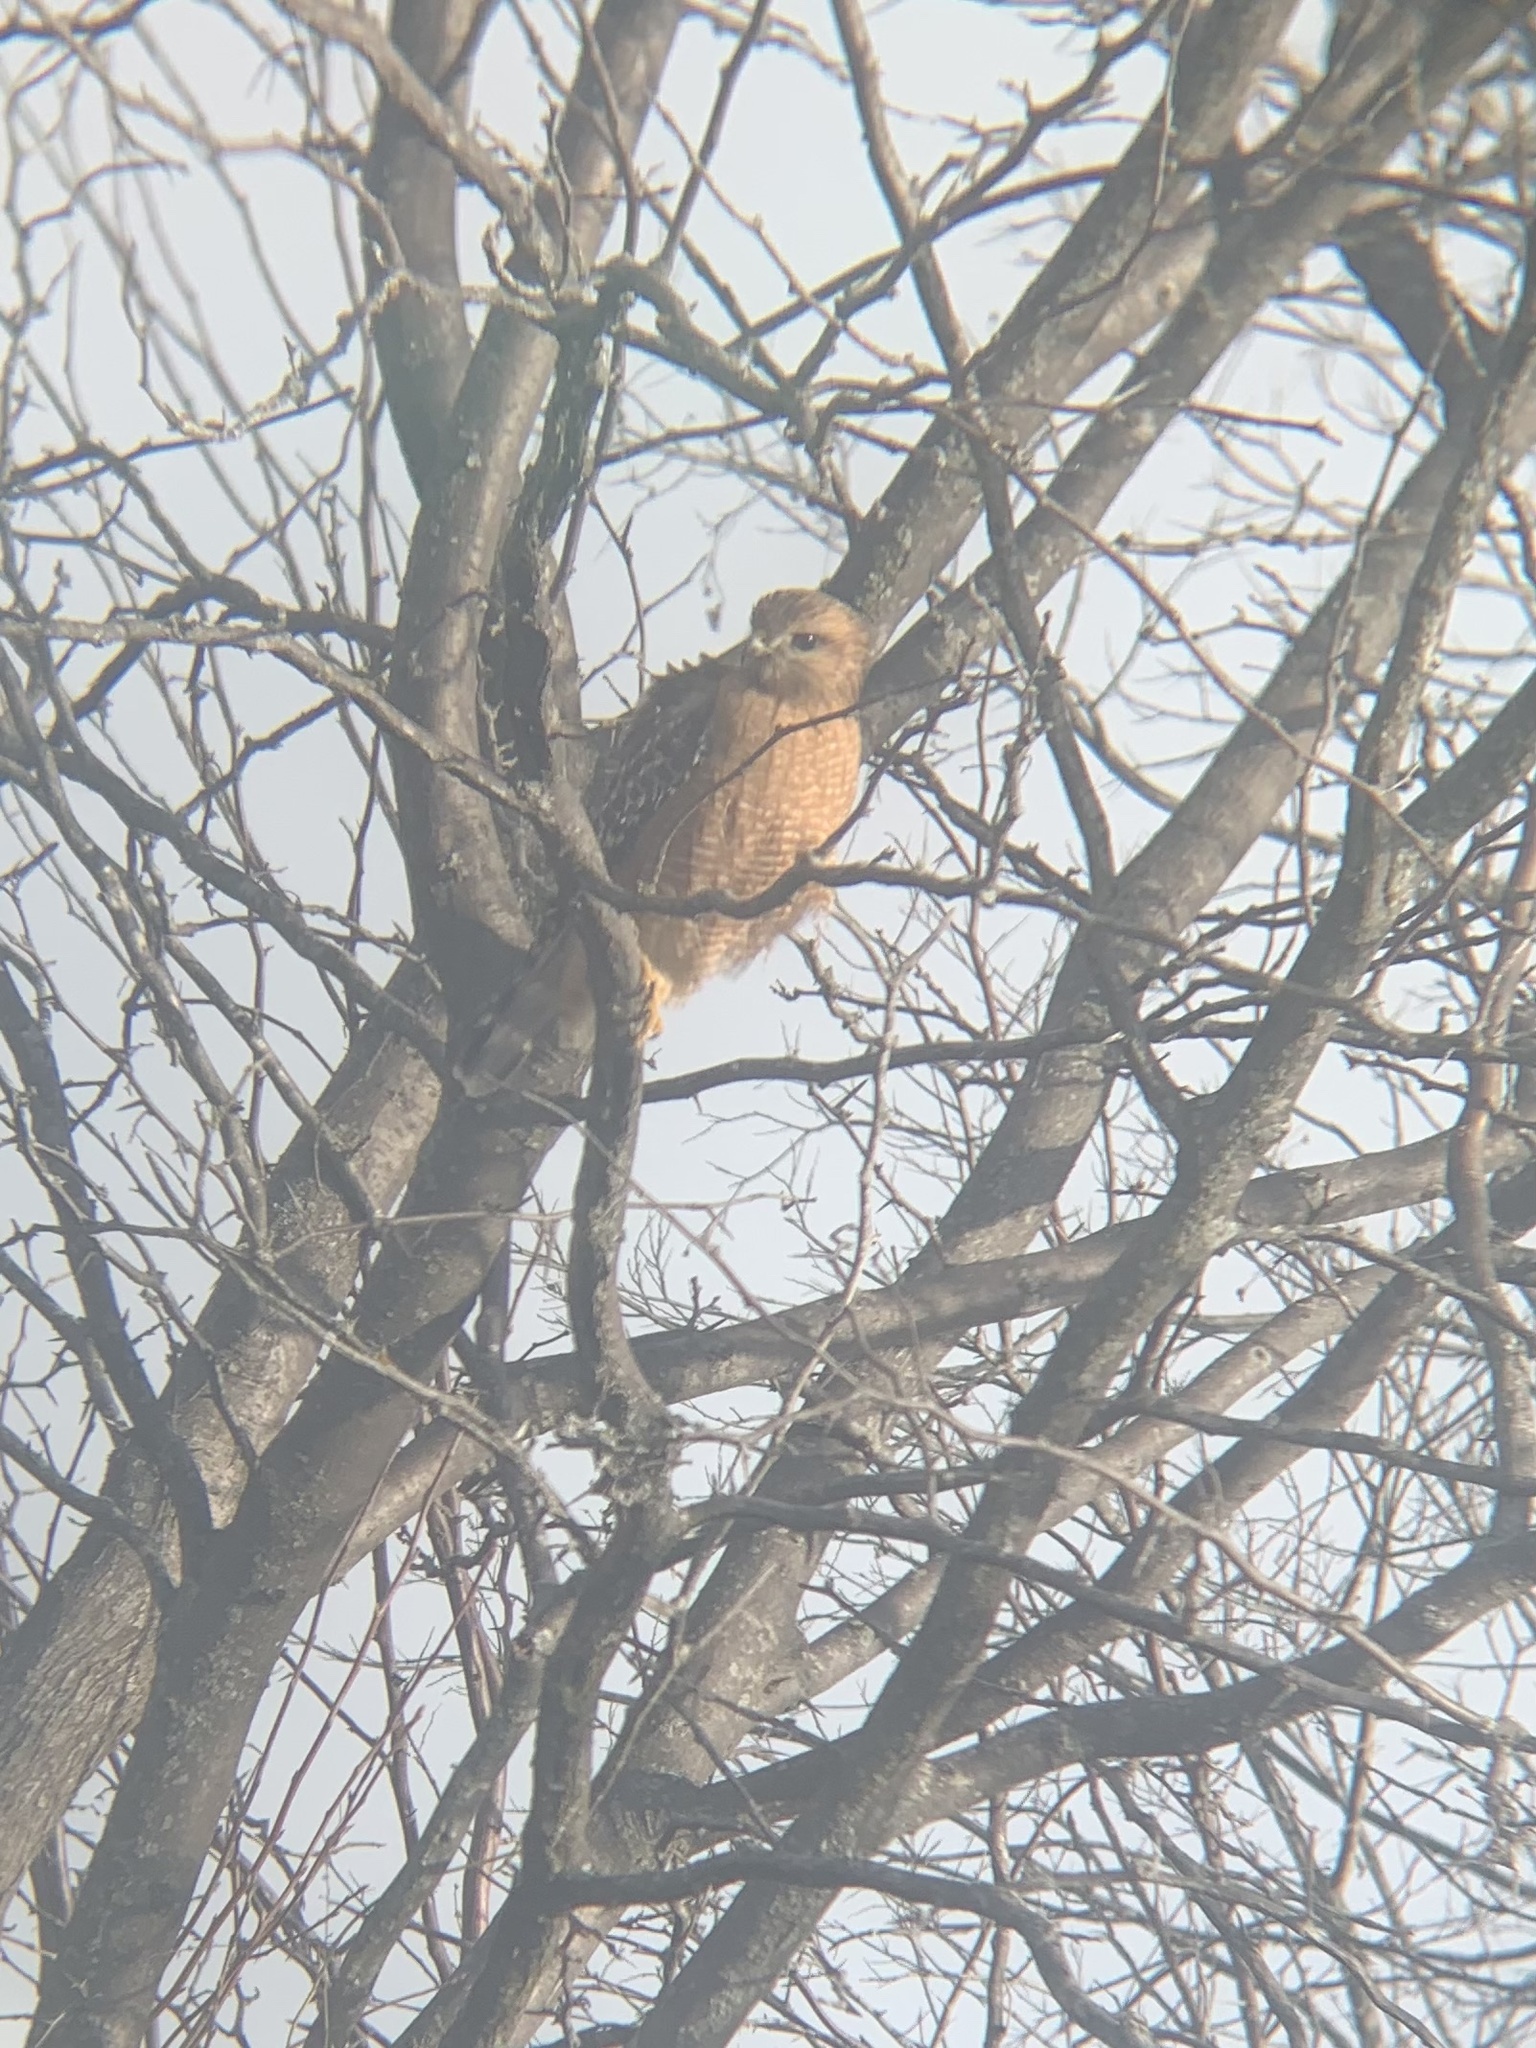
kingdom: Animalia
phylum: Chordata
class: Aves
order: Accipitriformes
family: Accipitridae
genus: Buteo
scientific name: Buteo lineatus
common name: Red-shouldered hawk
